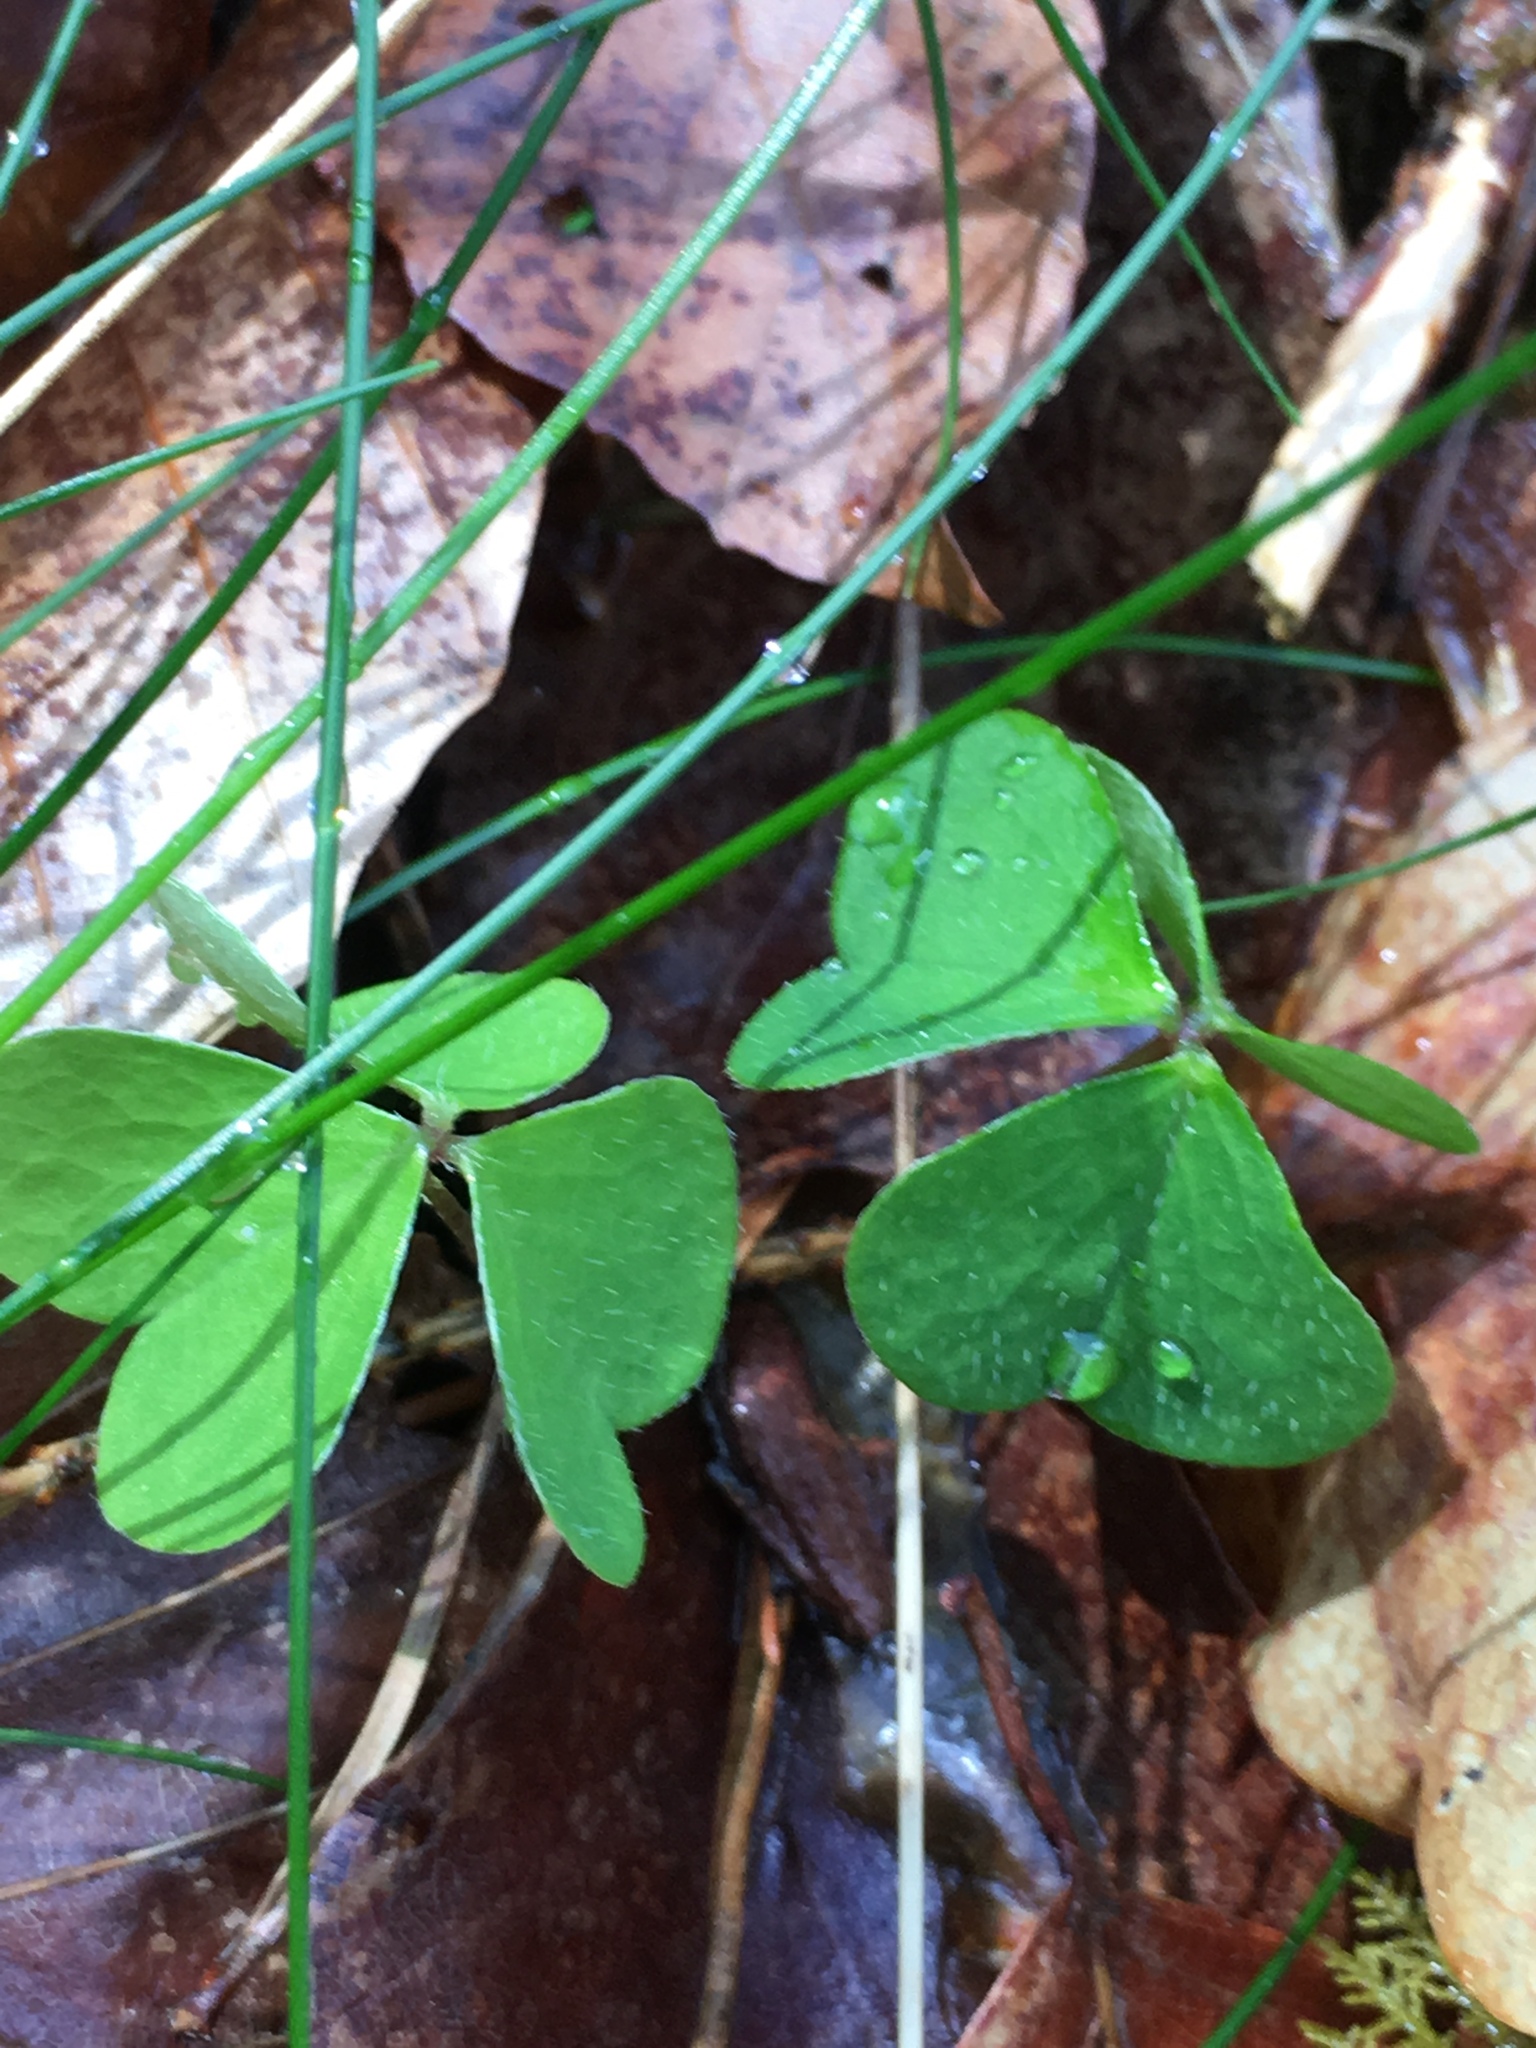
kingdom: Plantae
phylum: Tracheophyta
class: Magnoliopsida
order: Oxalidales
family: Oxalidaceae
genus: Oxalis
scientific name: Oxalis acetosella
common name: Wood-sorrel
